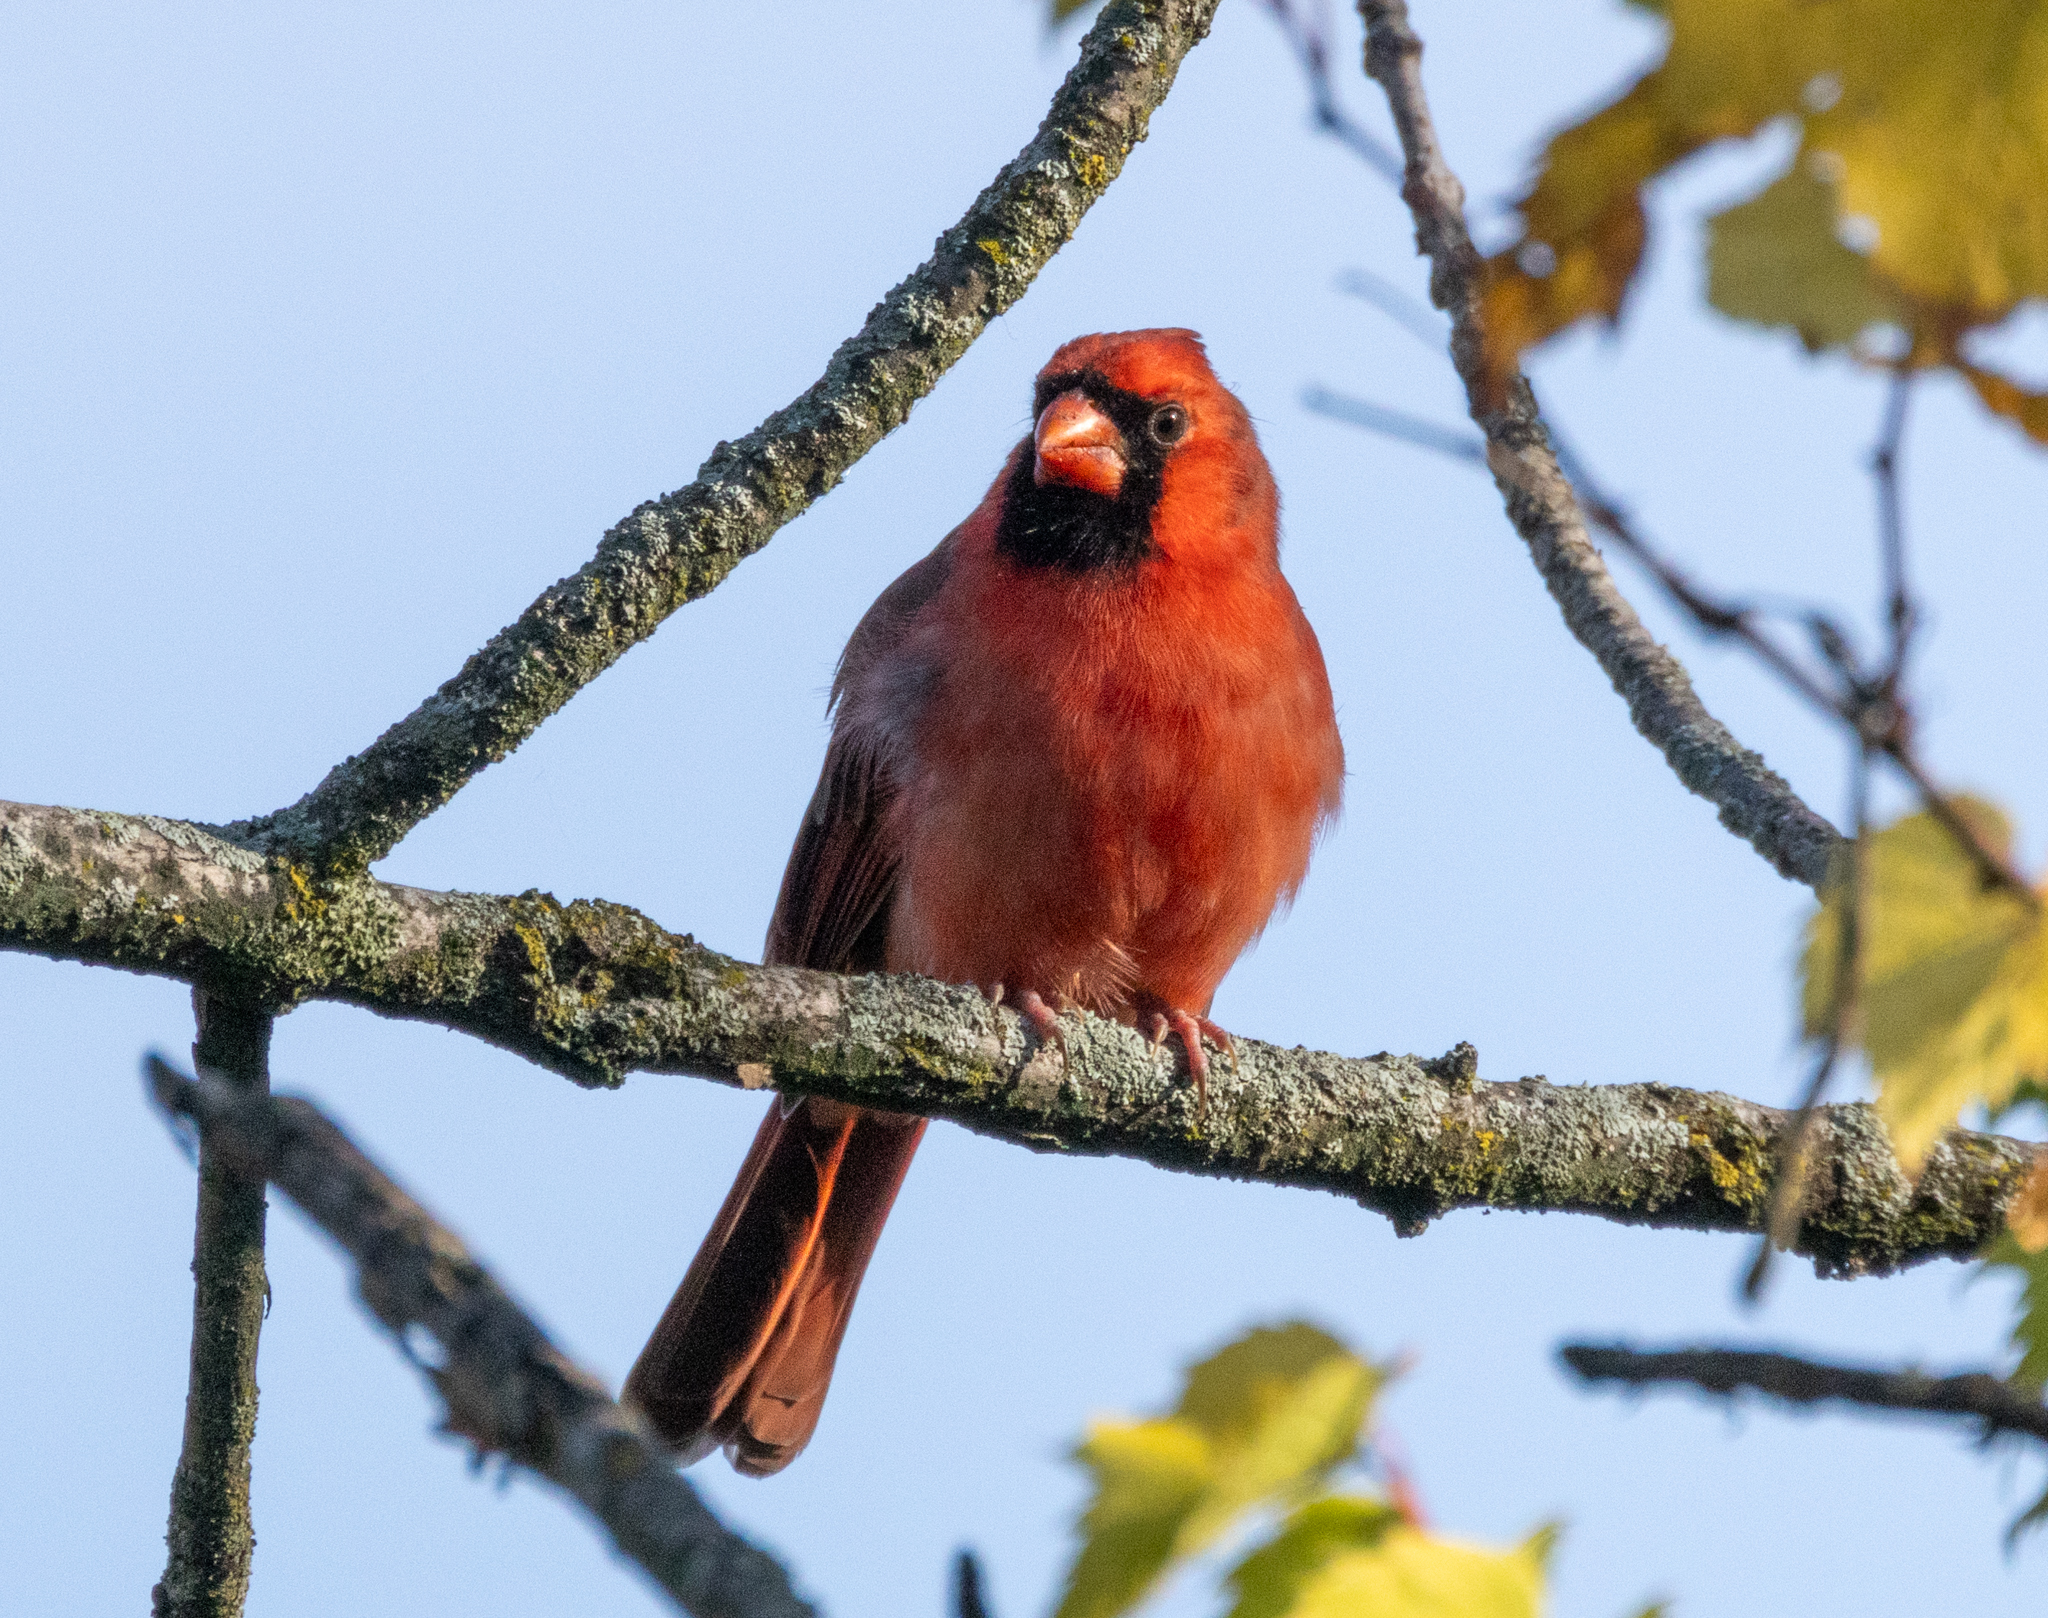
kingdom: Animalia
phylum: Chordata
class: Aves
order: Passeriformes
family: Cardinalidae
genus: Cardinalis
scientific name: Cardinalis cardinalis
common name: Northern cardinal
